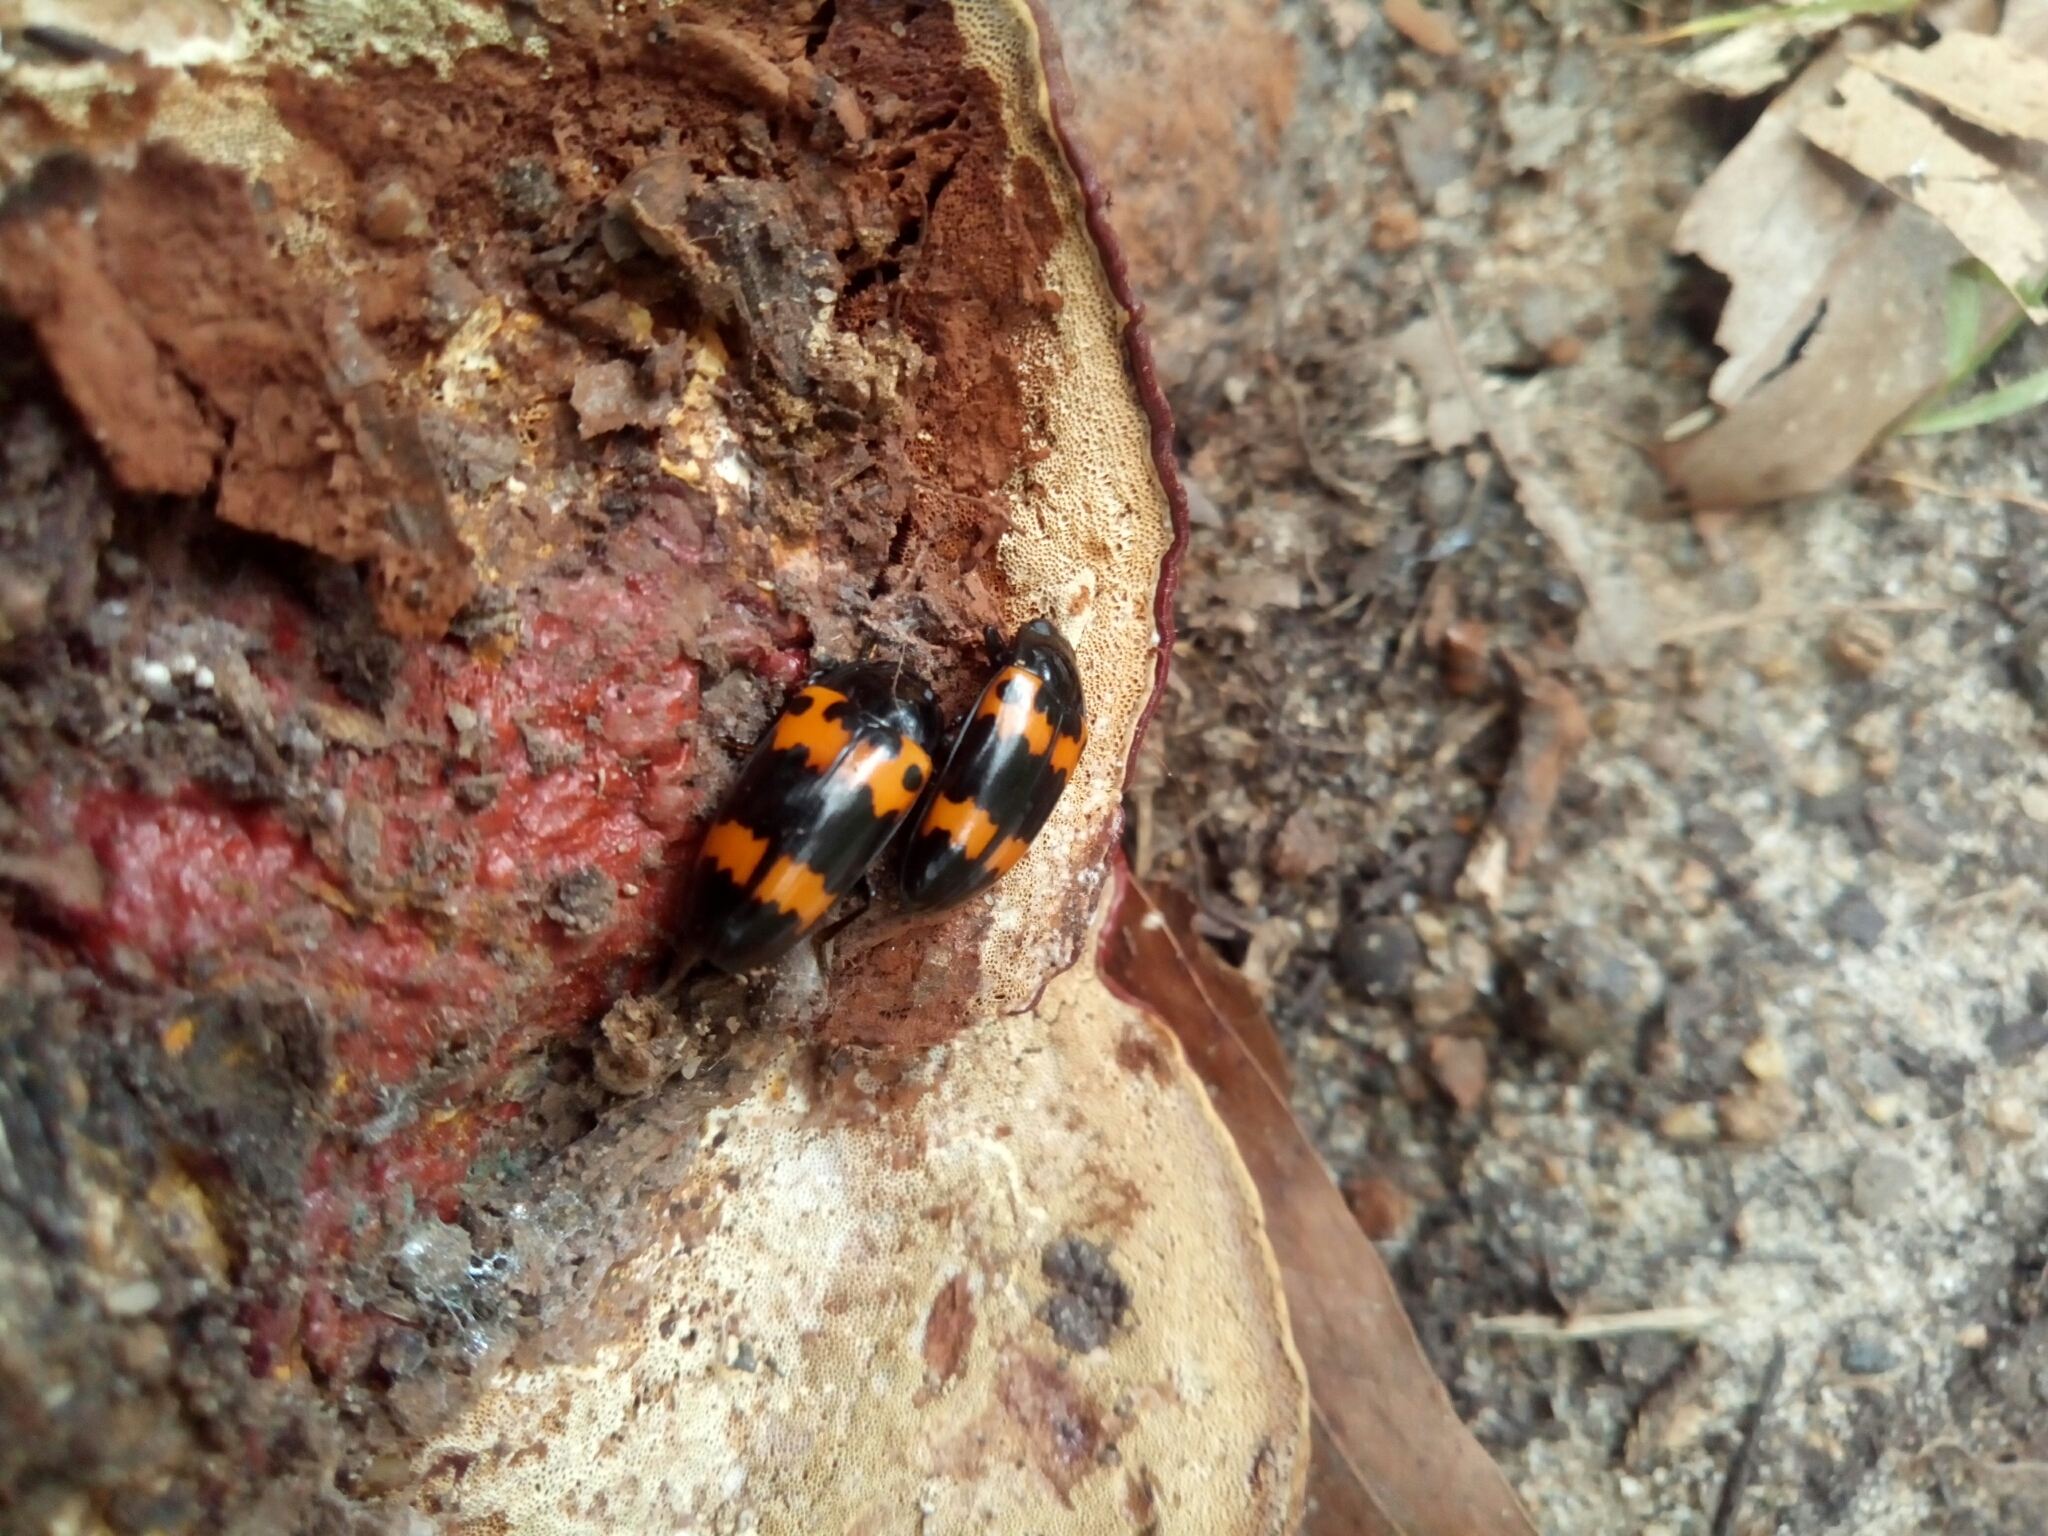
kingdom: Animalia
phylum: Arthropoda
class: Insecta
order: Coleoptera
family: Erotylidae
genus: Megalodacne
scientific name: Megalodacne fasciata
